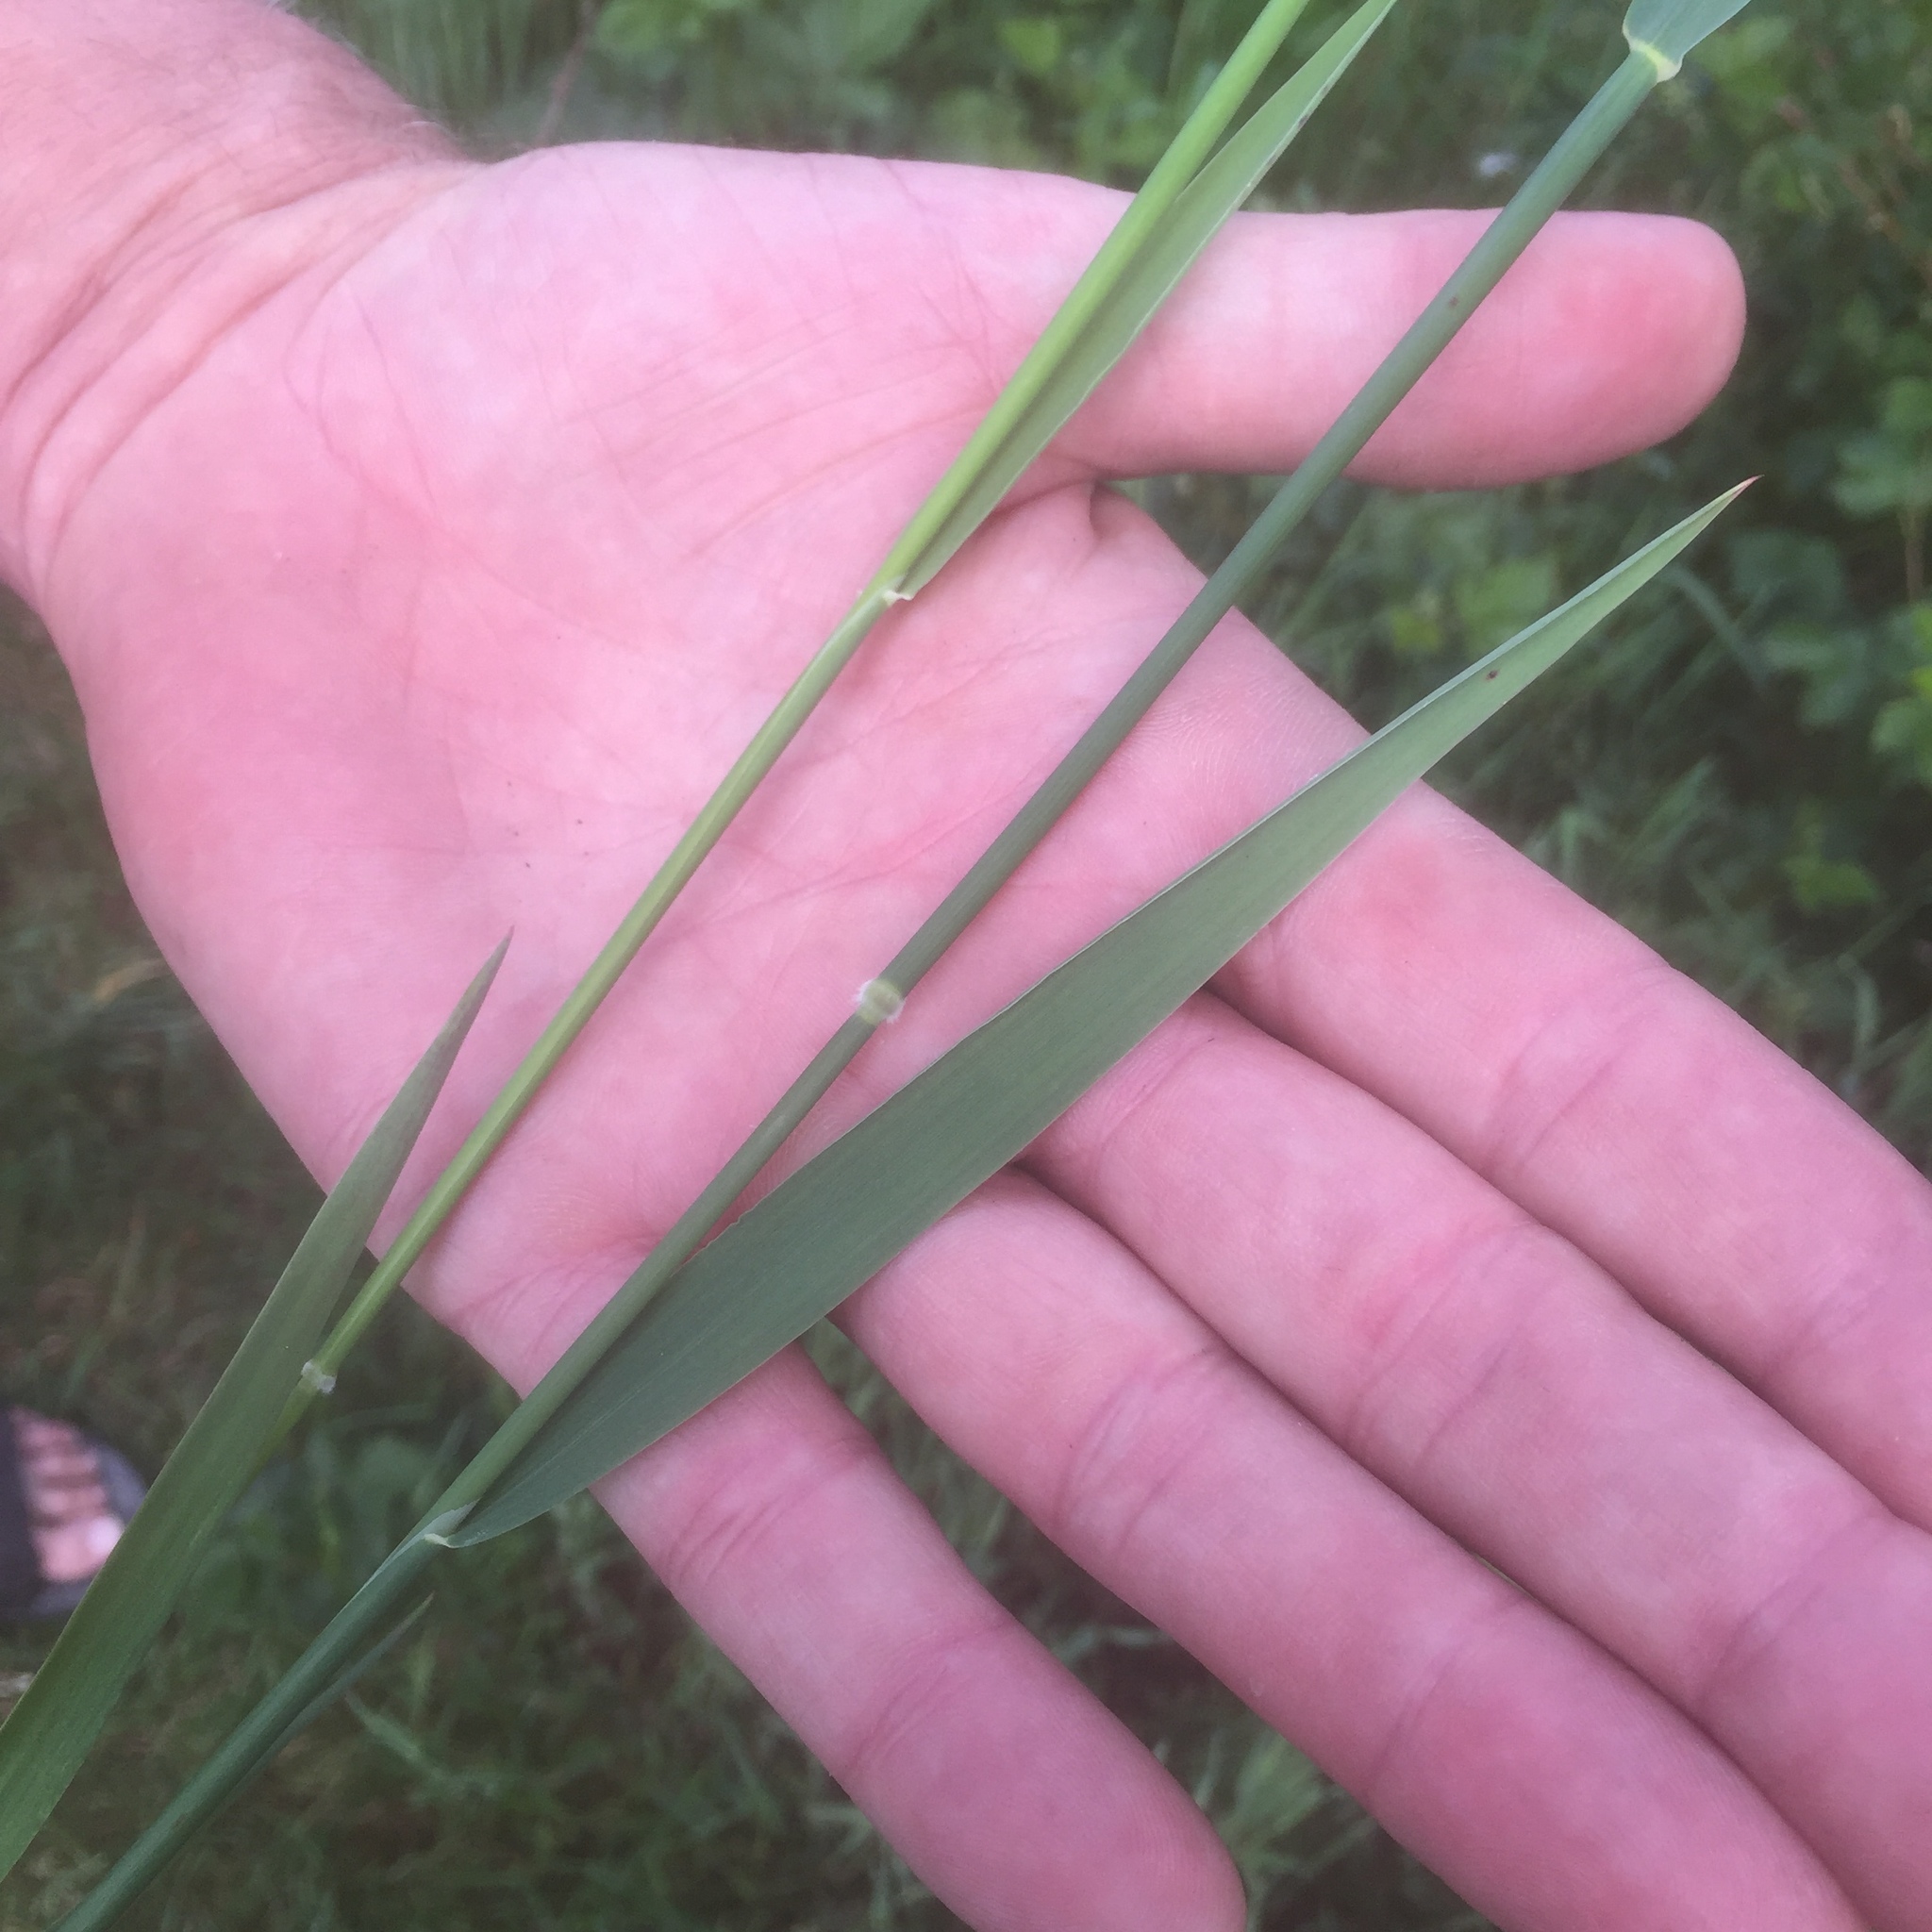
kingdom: Plantae
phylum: Tracheophyta
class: Liliopsida
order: Poales
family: Poaceae
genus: Holcus
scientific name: Holcus mollis
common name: Creeping velvetgrass
